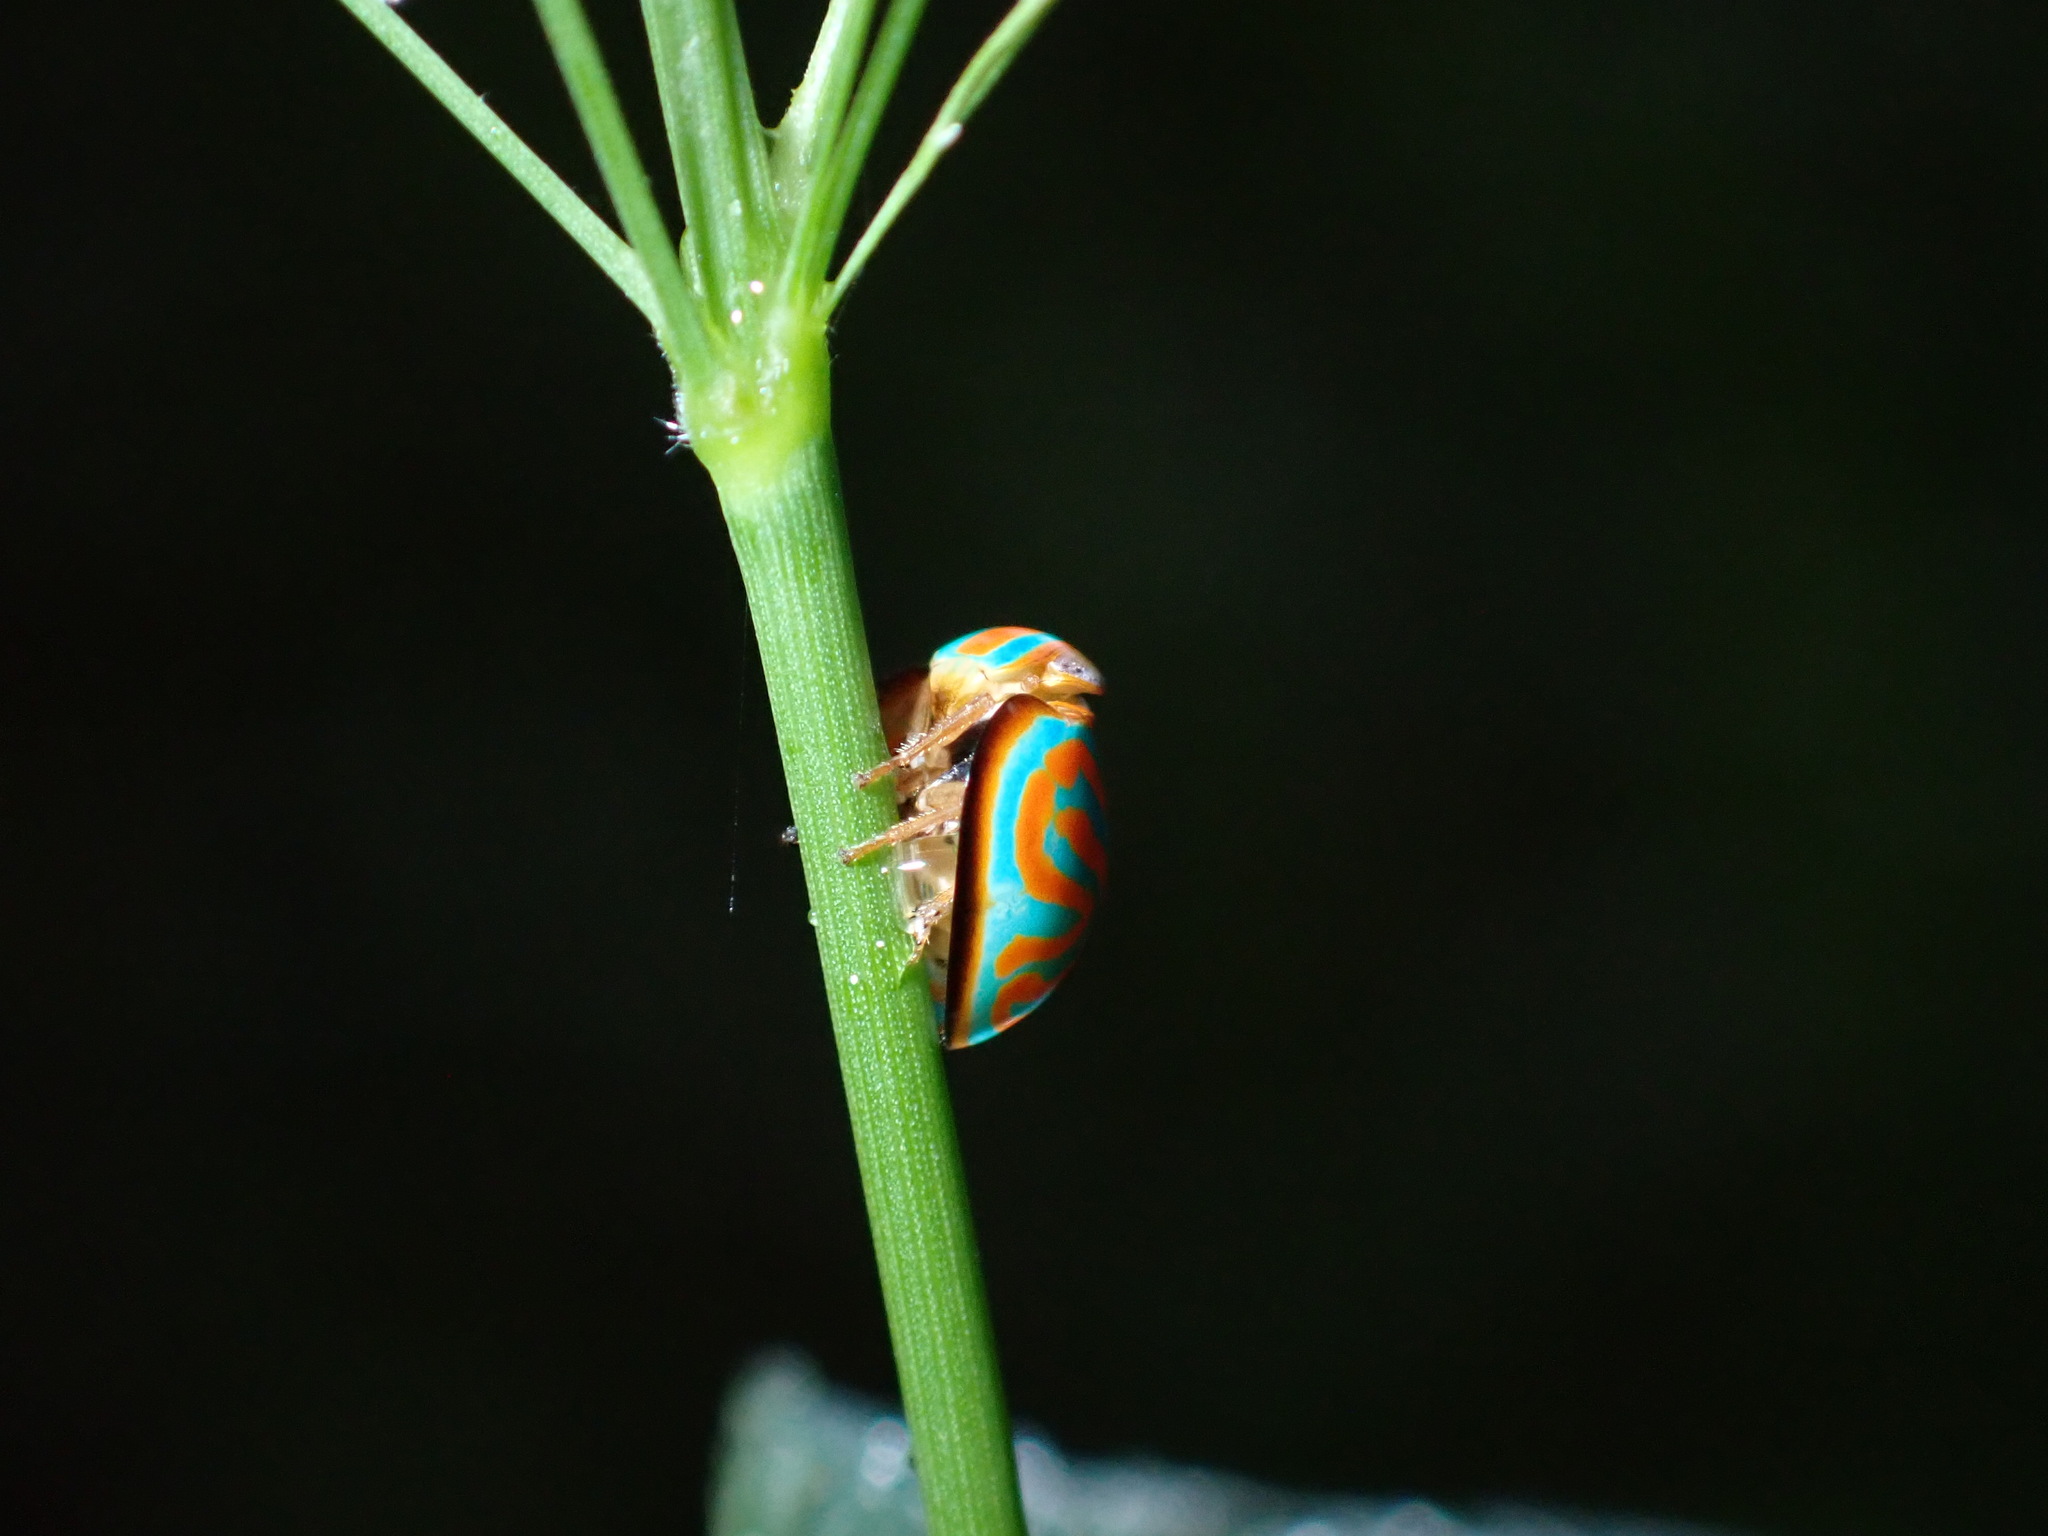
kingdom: Animalia
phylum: Arthropoda
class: Insecta
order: Hemiptera
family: Issidae
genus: Hemisphaerius
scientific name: Hemisphaerius binduseni
